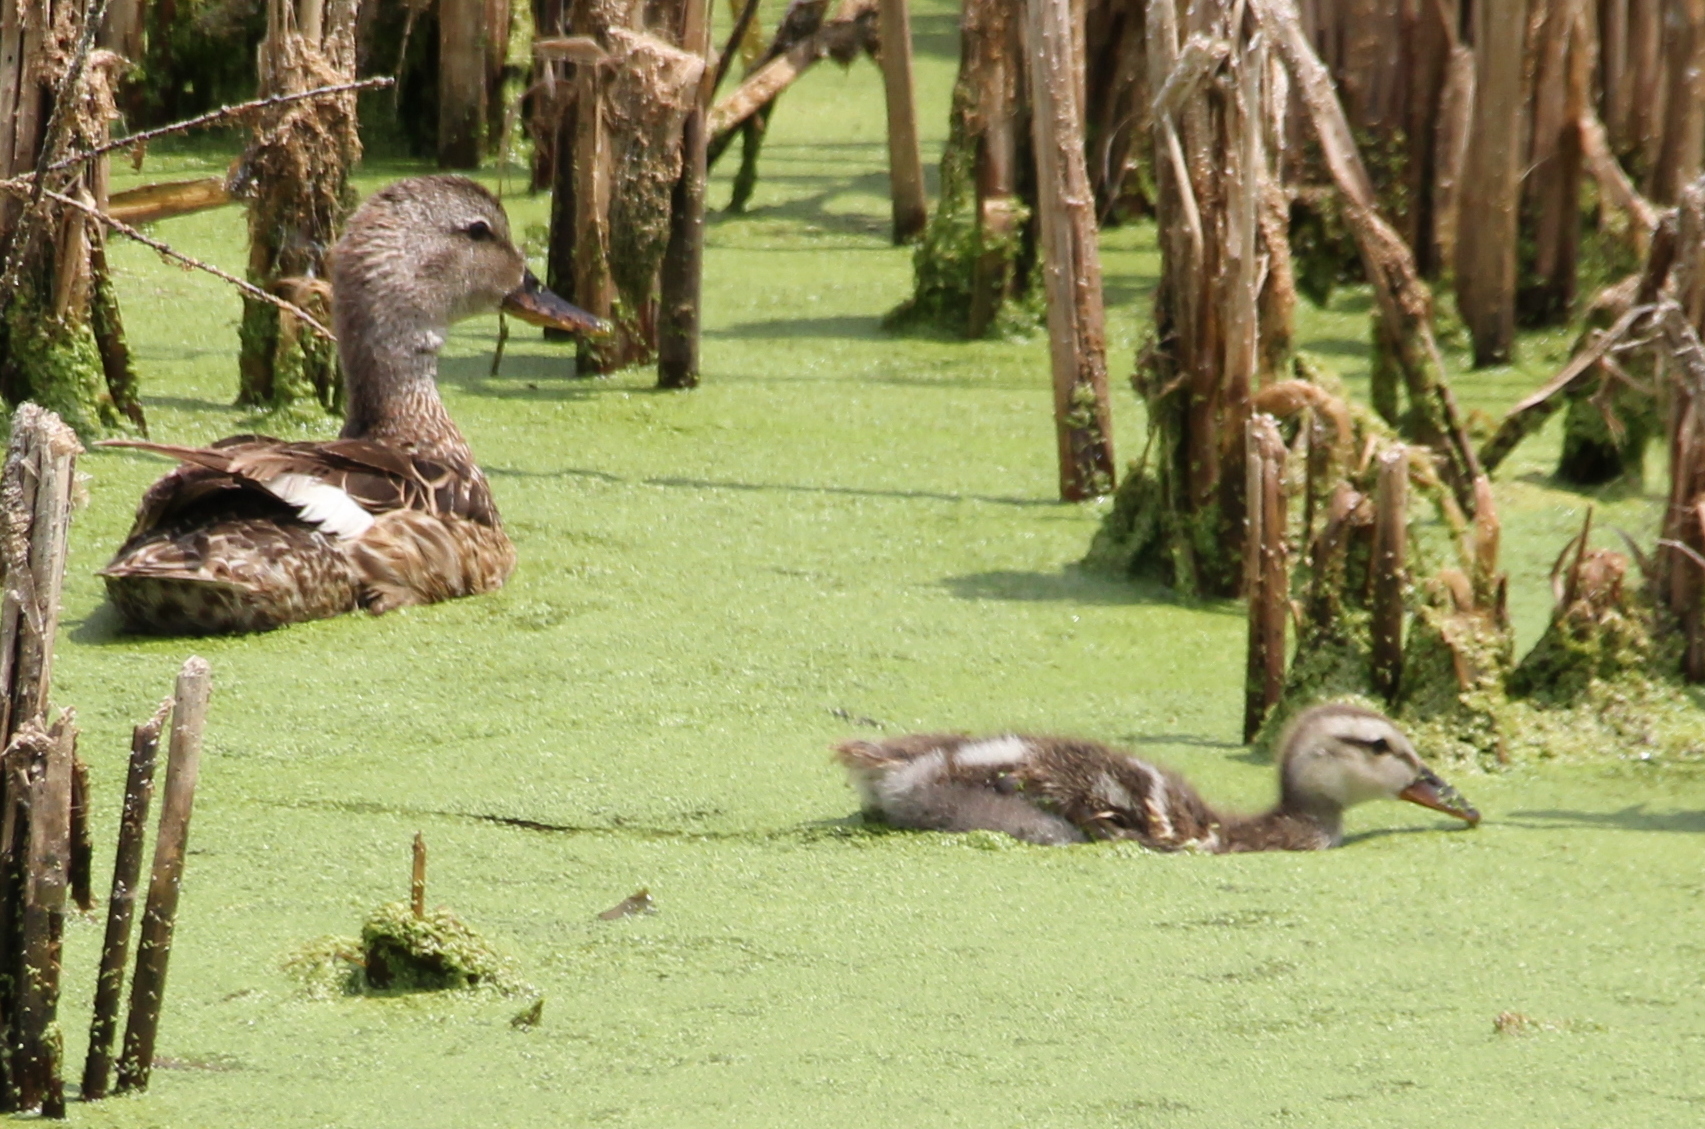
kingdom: Animalia
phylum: Chordata
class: Aves
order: Anseriformes
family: Anatidae
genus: Mareca
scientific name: Mareca strepera
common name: Gadwall
